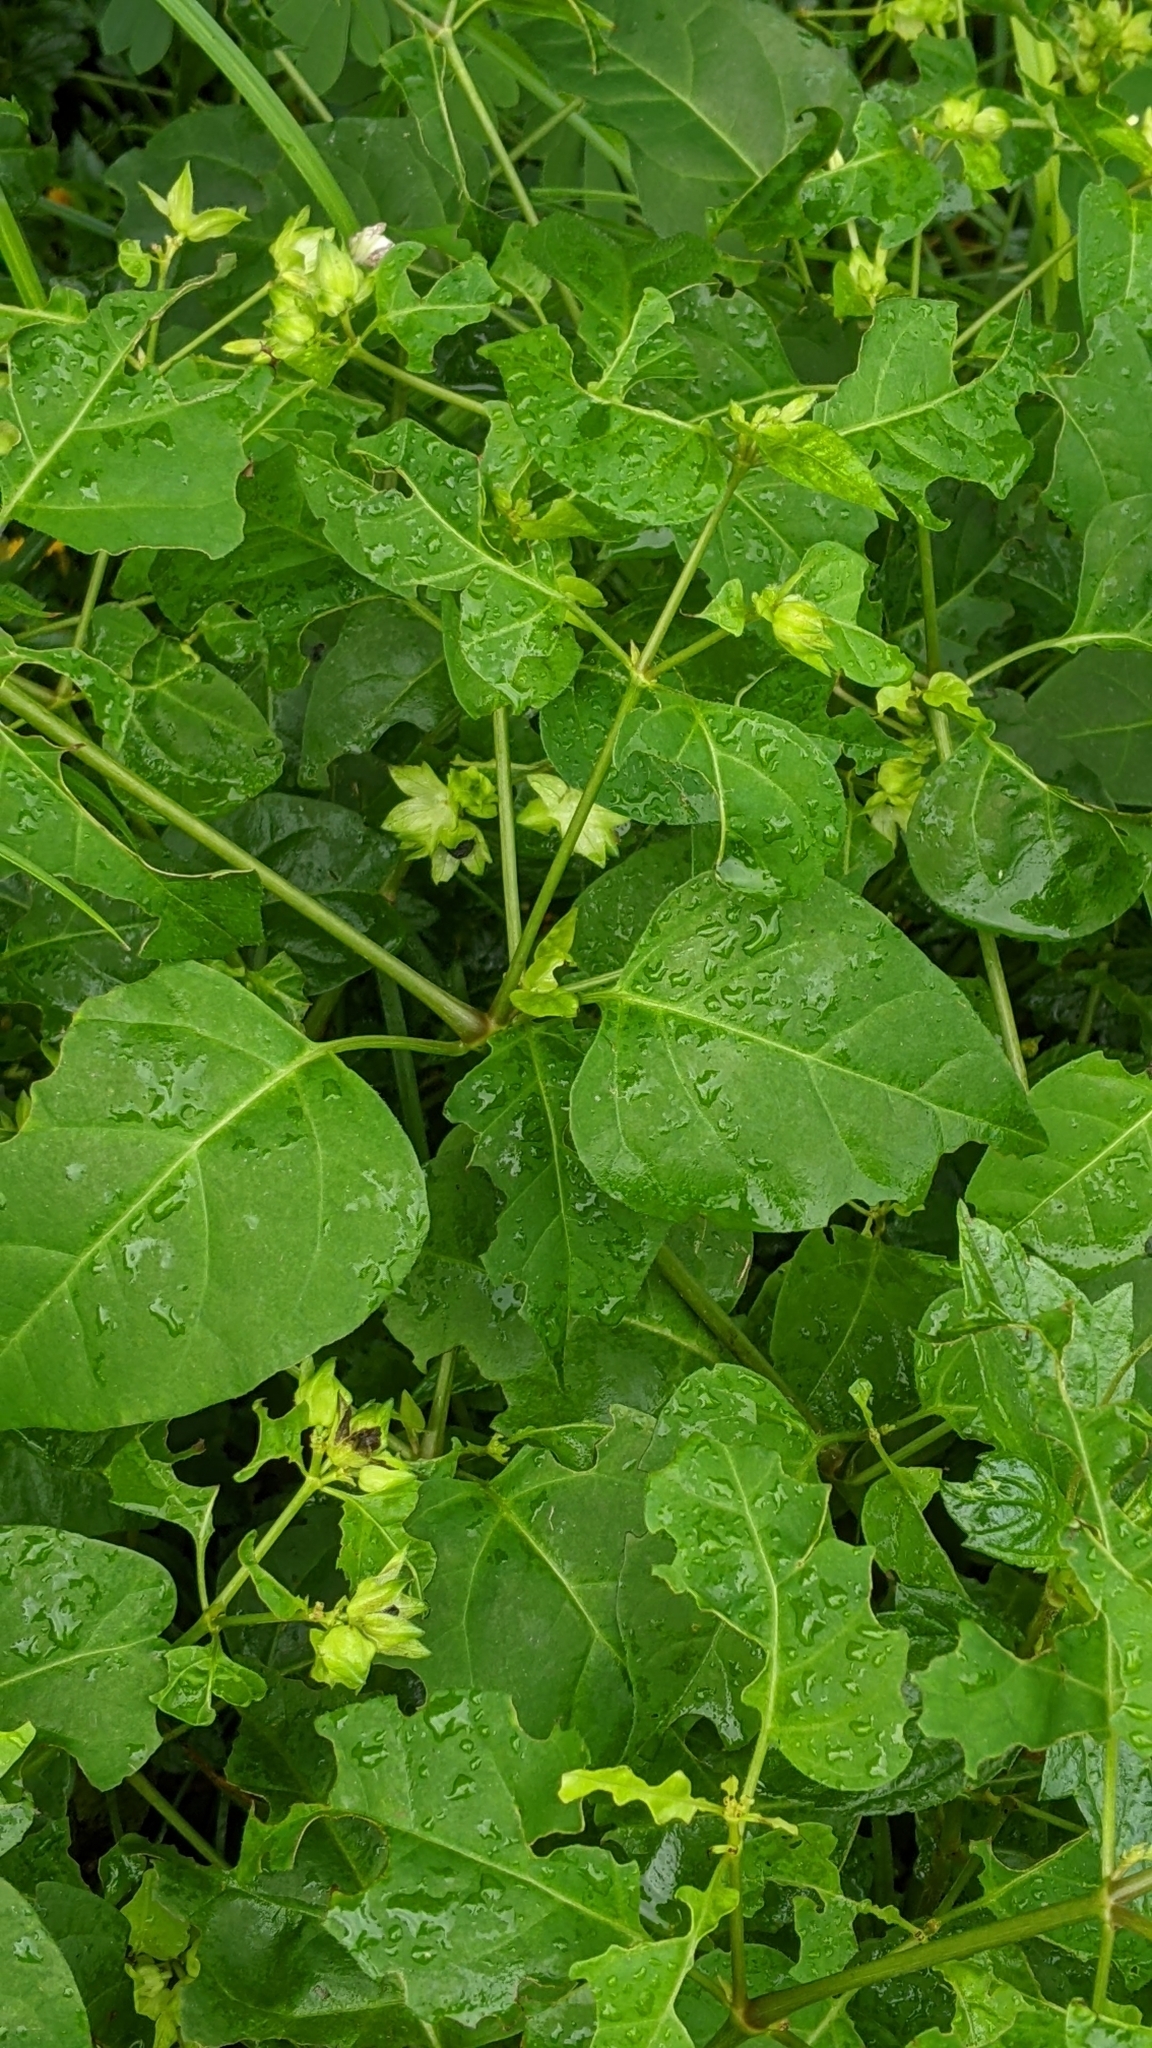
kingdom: Plantae
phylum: Tracheophyta
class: Magnoliopsida
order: Caryophyllales
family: Nyctaginaceae
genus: Mirabilis
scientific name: Mirabilis jalapa
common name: Marvel-of-peru
